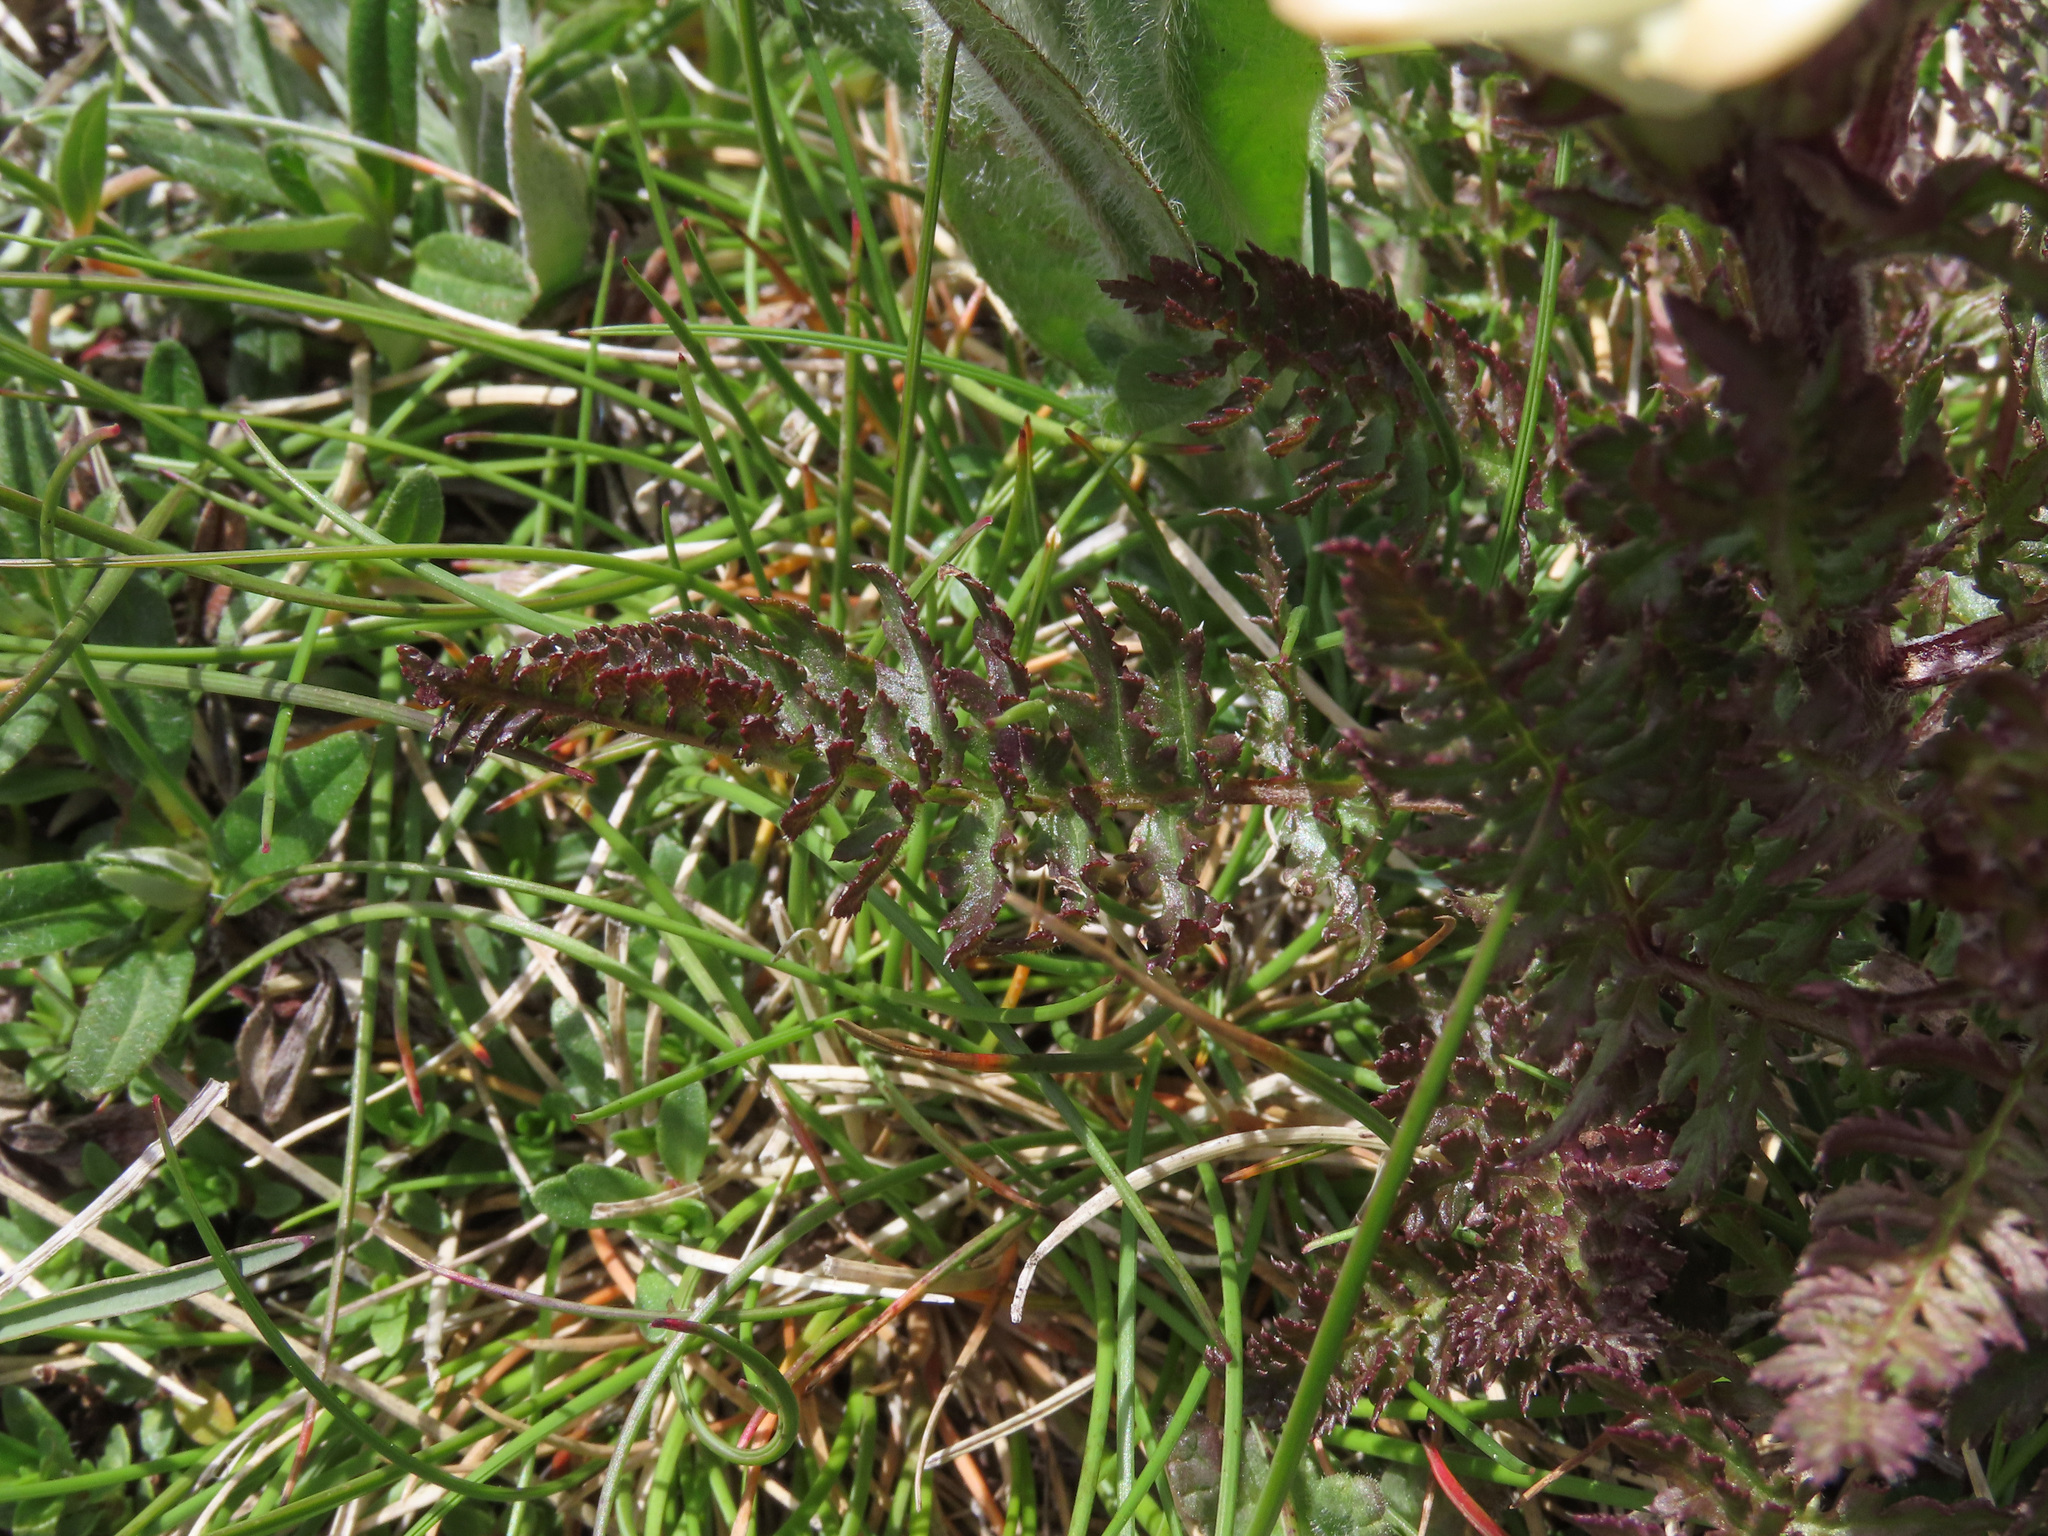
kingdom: Plantae
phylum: Tracheophyta
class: Magnoliopsida
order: Lamiales
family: Orobanchaceae
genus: Pedicularis
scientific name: Pedicularis comosa
